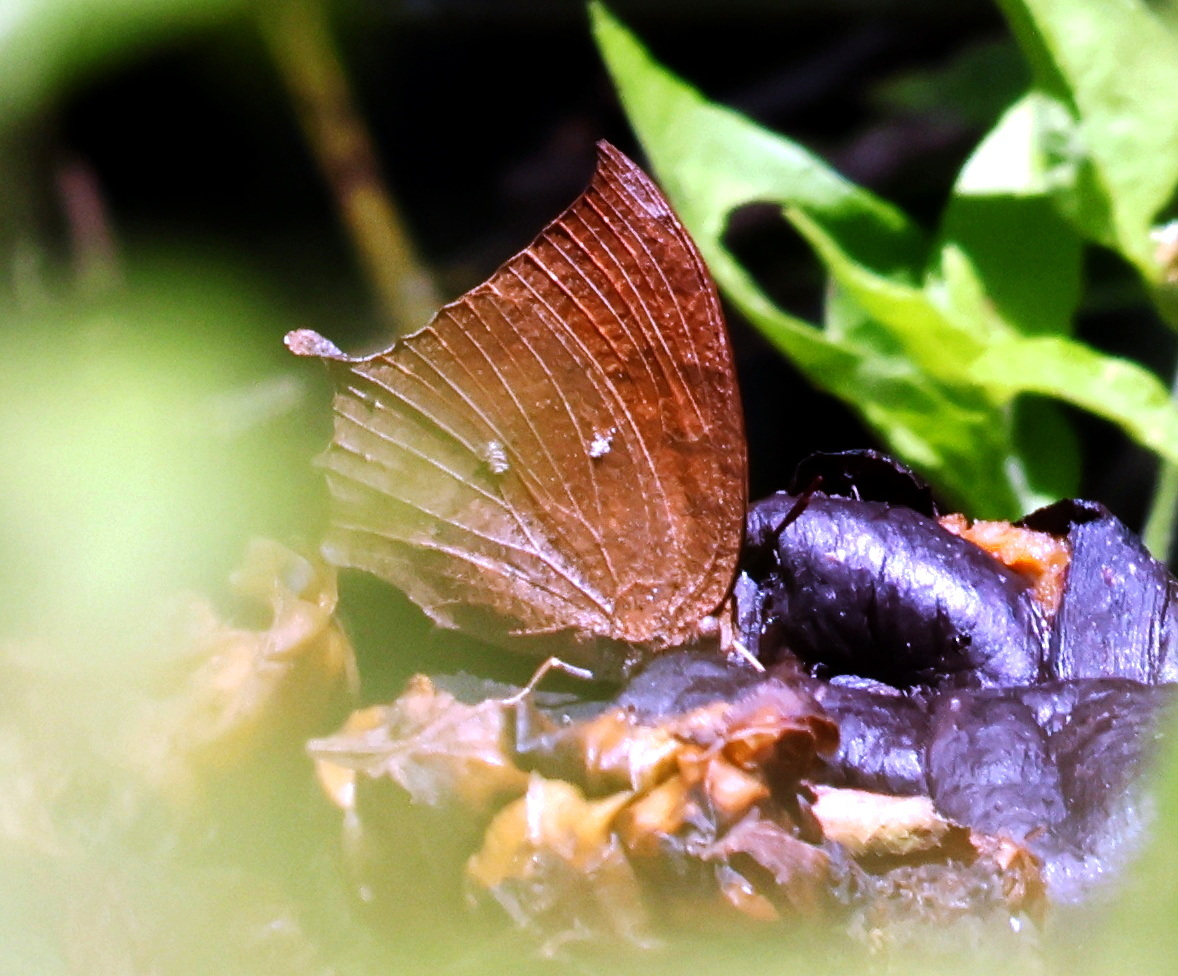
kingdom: Animalia
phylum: Arthropoda
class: Insecta
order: Lepidoptera
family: Nymphalidae
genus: Anaea
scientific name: Anaea aidea
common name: Tropical leafwing
